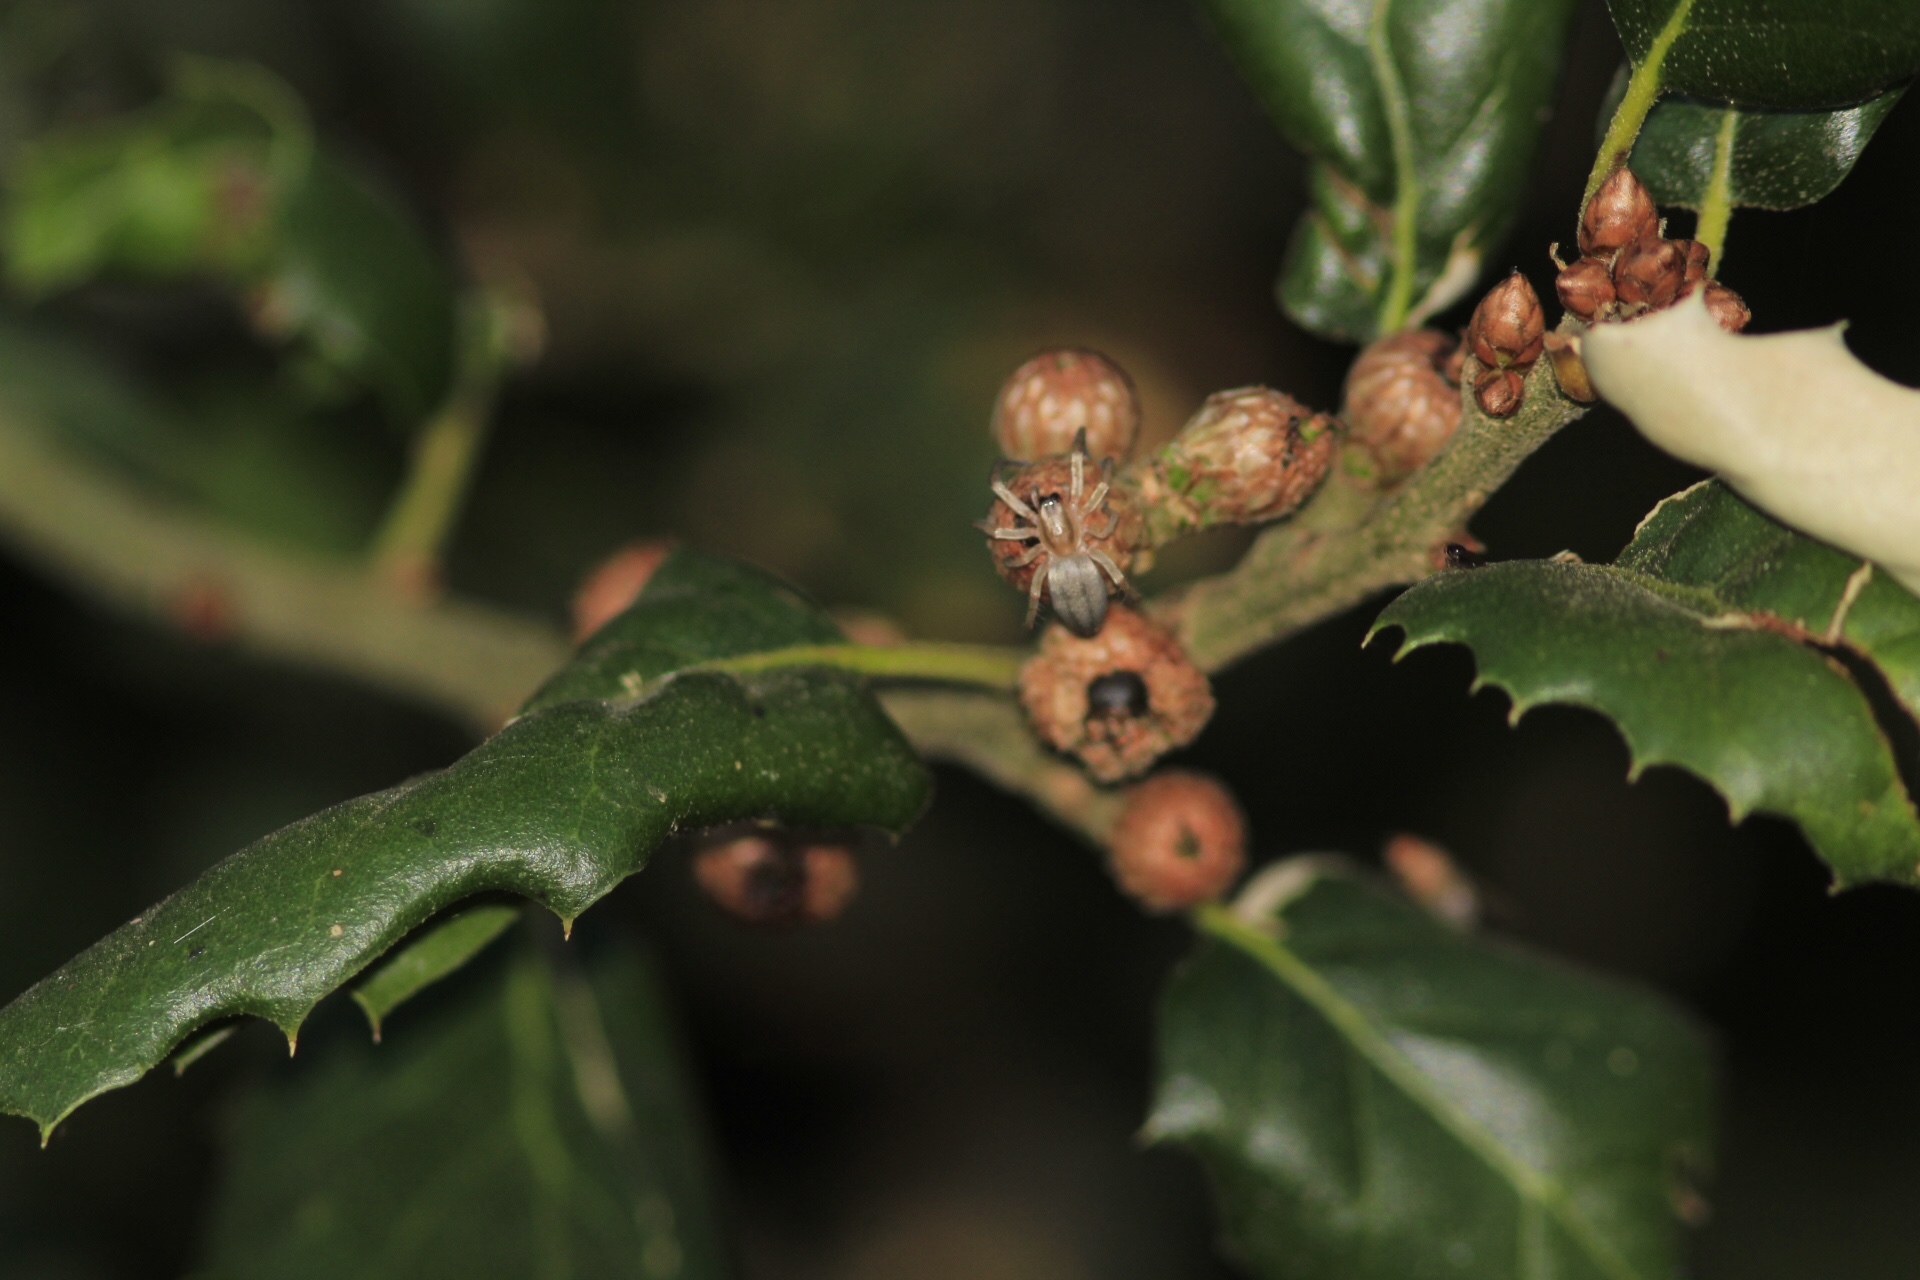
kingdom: Plantae
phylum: Tracheophyta
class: Magnoliopsida
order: Fagales
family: Fagaceae
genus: Quercus
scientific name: Quercus agrifolia
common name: California live oak
